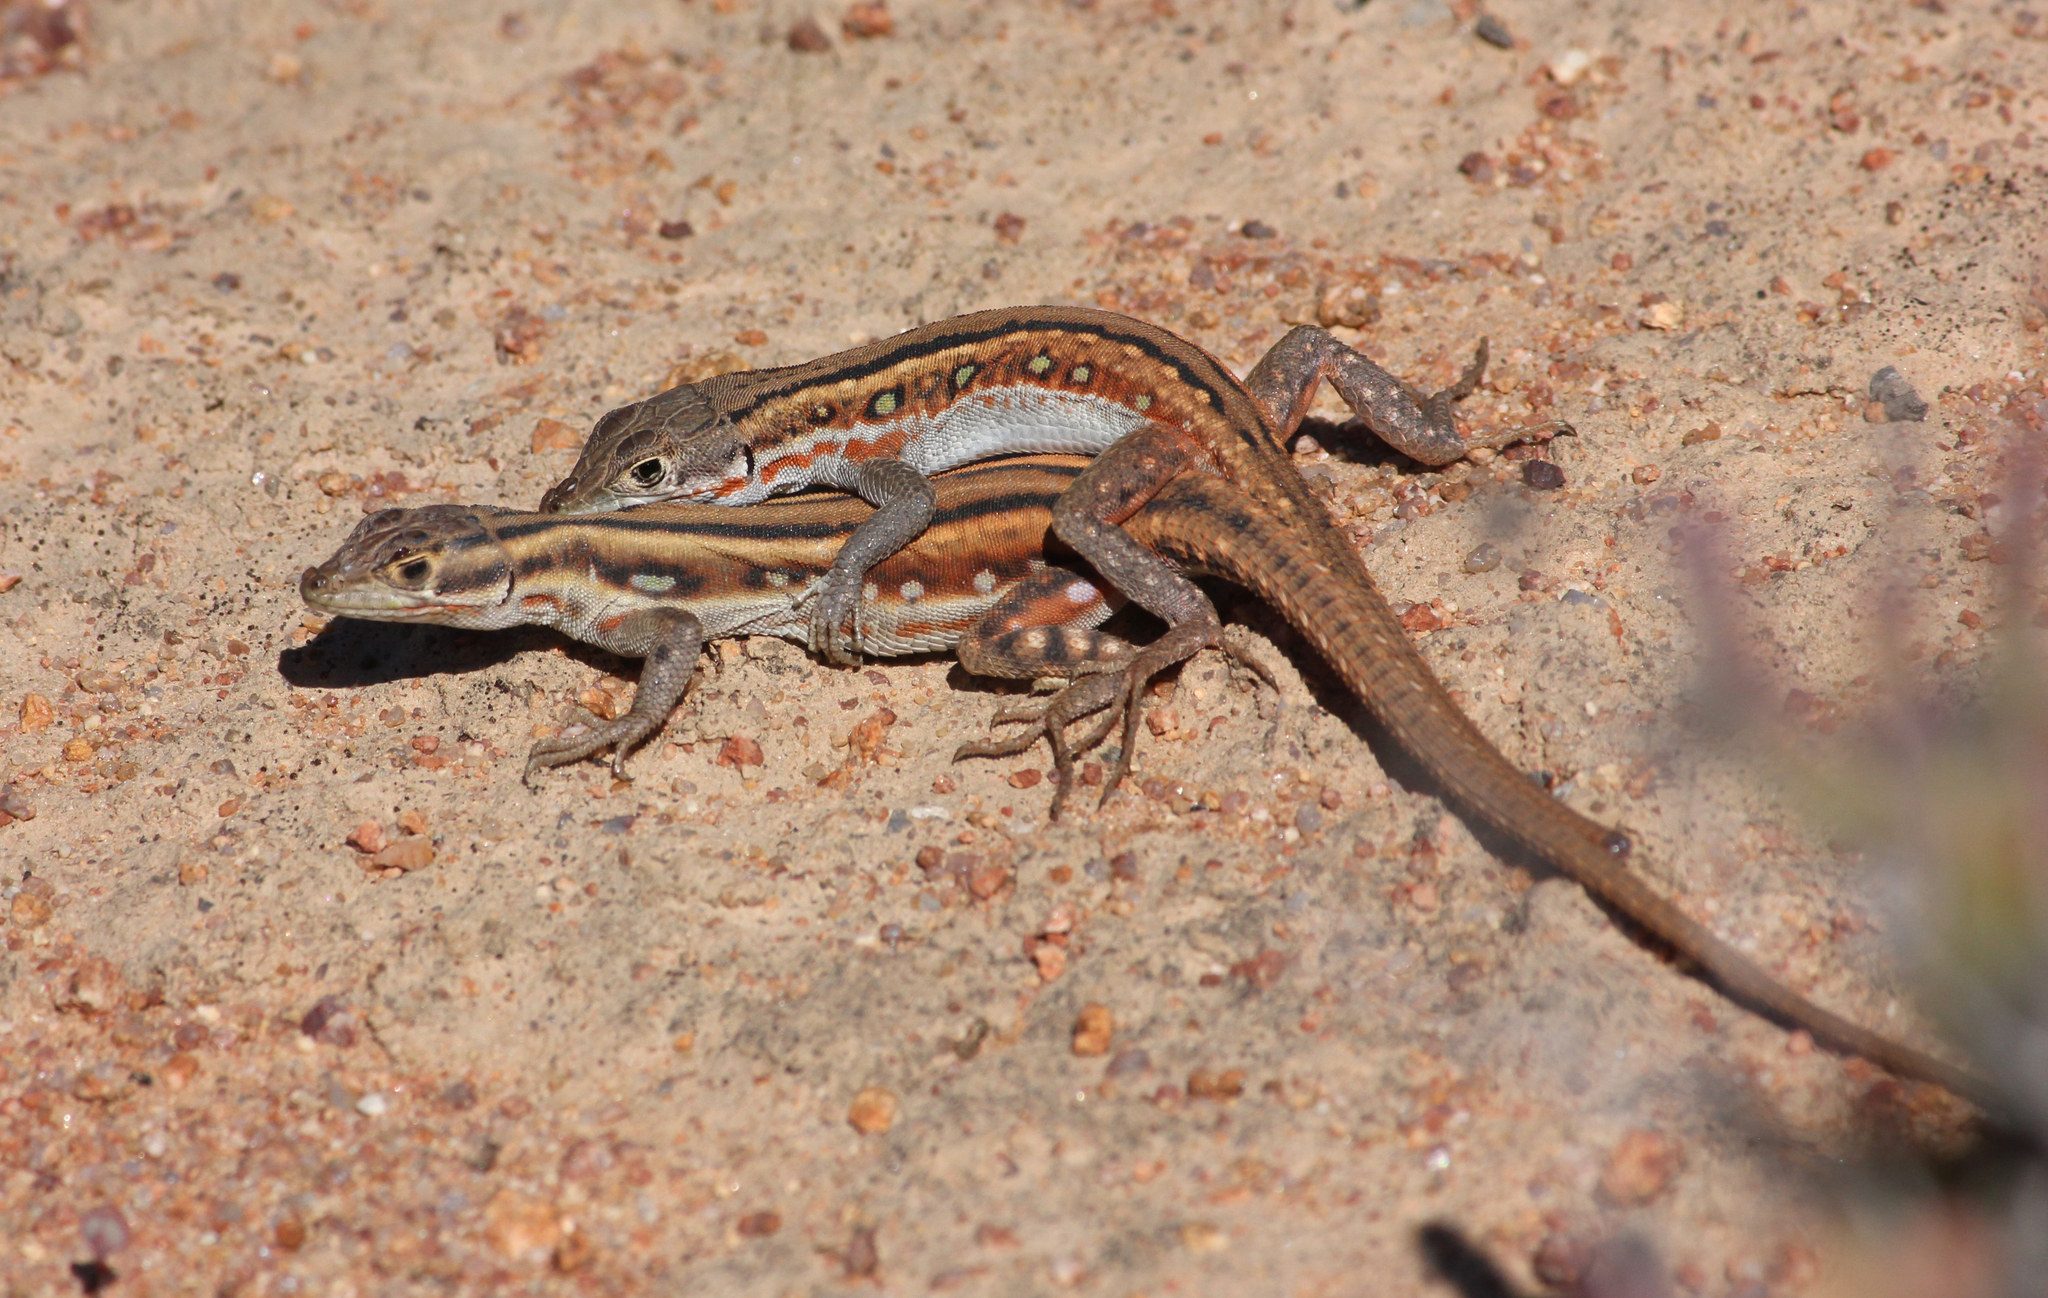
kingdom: Animalia
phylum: Chordata
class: Squamata
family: Lacertidae
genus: Pedioplanis
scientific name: Pedioplanis lineoocellata
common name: Spotted sand lizard
